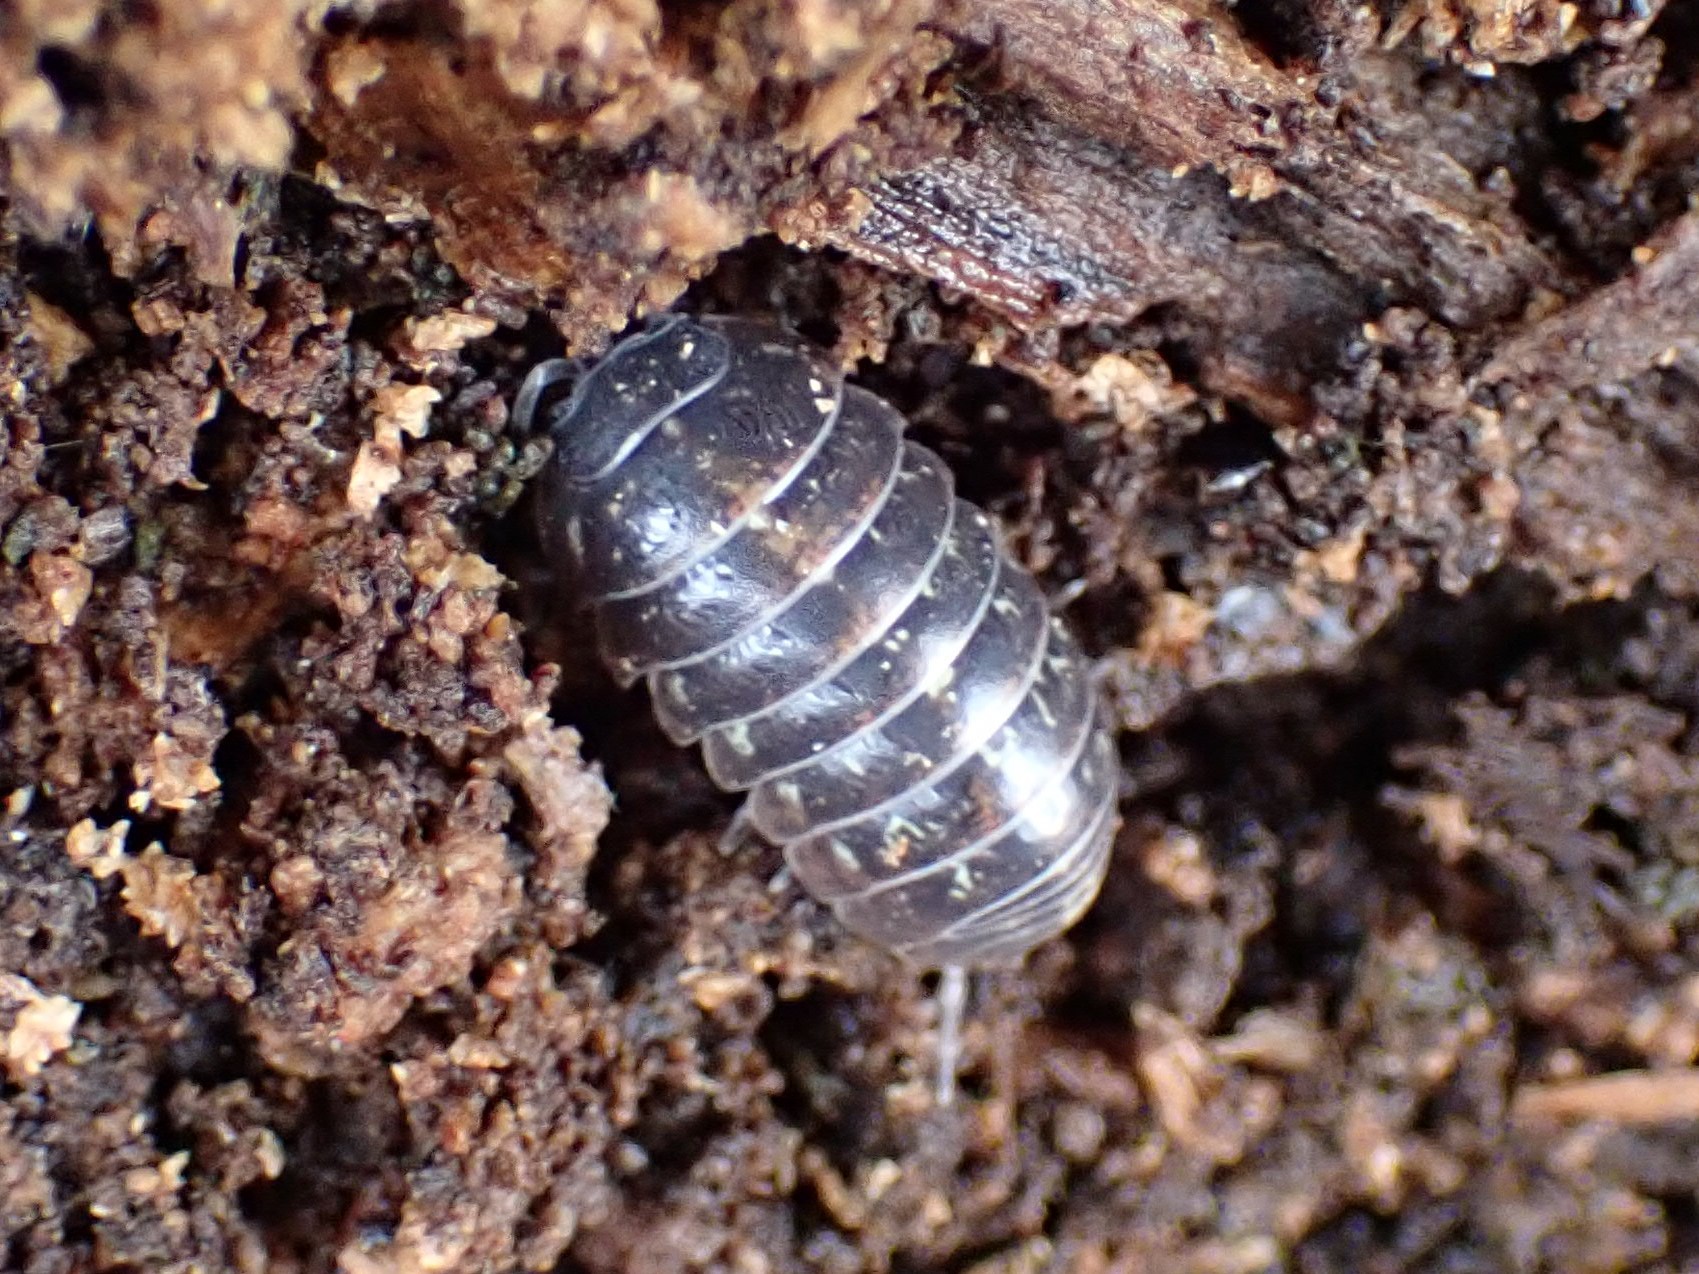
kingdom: Animalia
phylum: Arthropoda
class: Malacostraca
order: Isopoda
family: Armadillidiidae
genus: Armadillidium
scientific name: Armadillidium vulgare
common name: Common pill woodlouse
